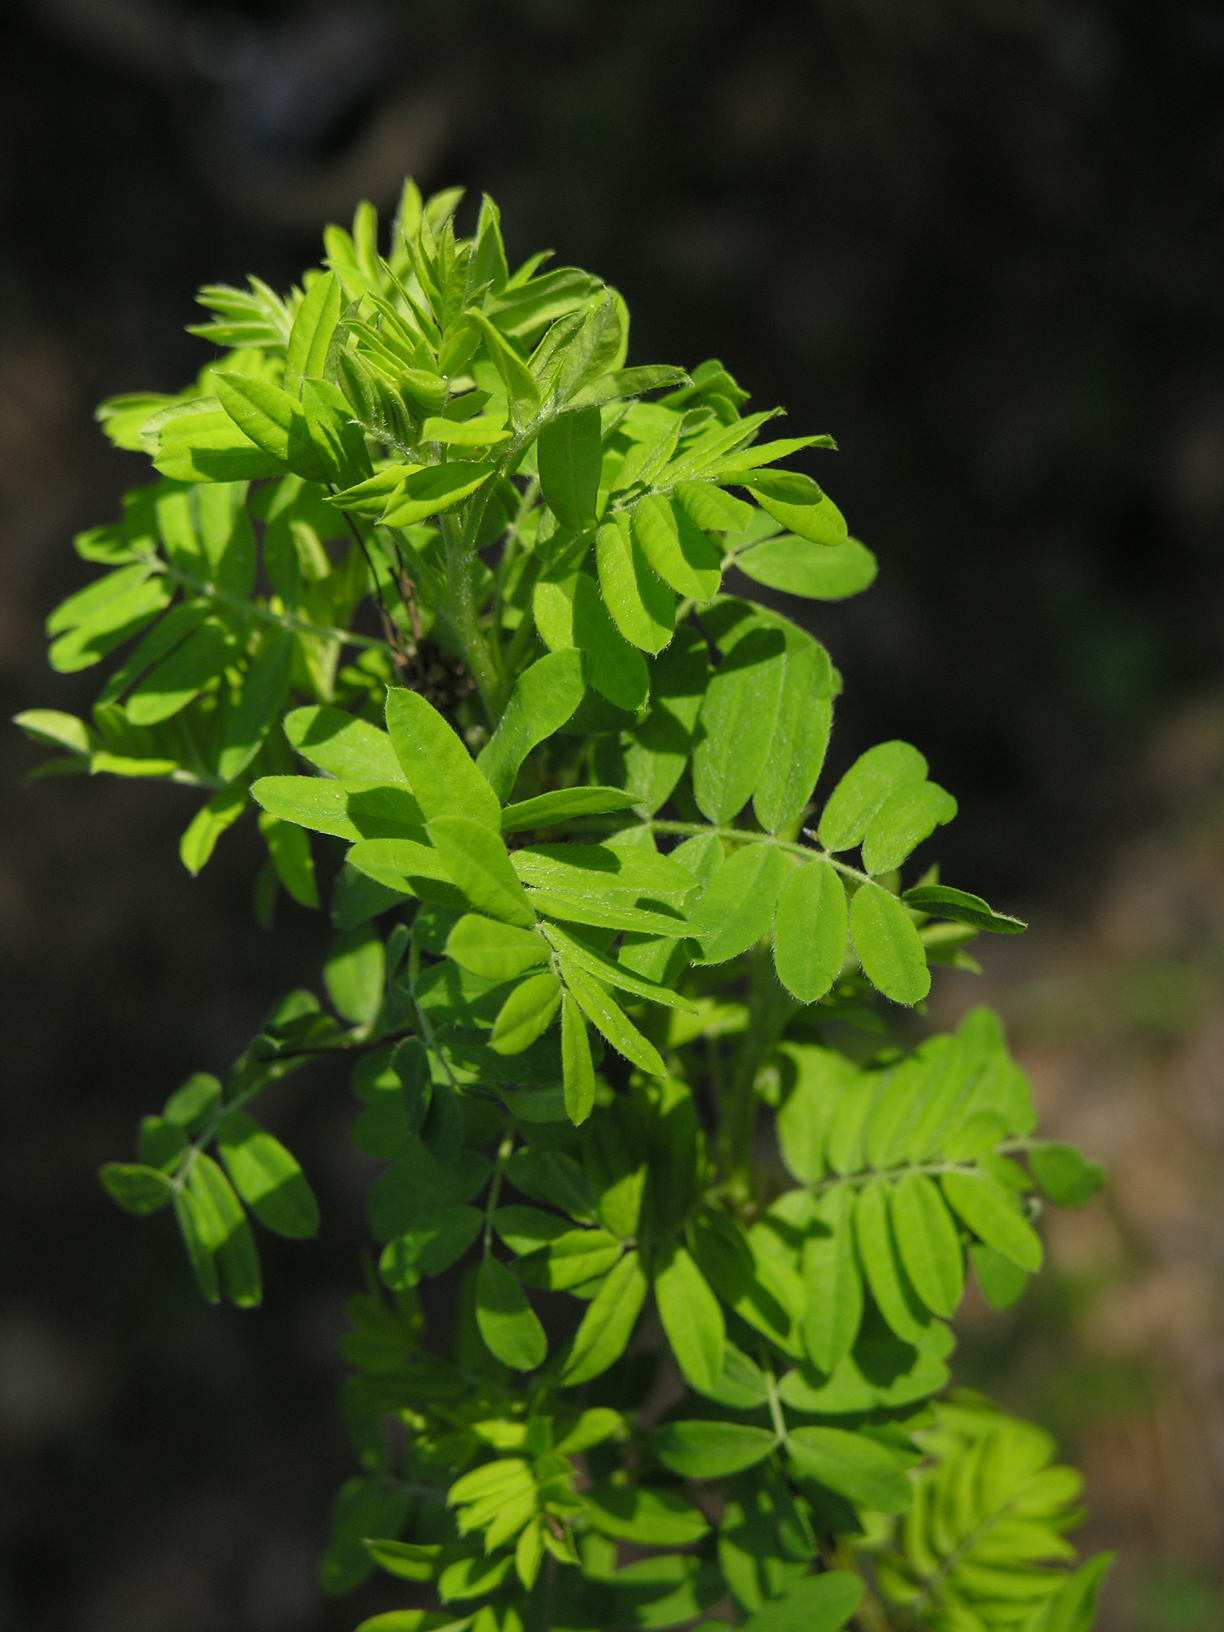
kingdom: Plantae
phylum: Tracheophyta
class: Magnoliopsida
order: Fabales
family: Fabaceae
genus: Caragana
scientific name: Caragana arborescens
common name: Siberian peashrub
